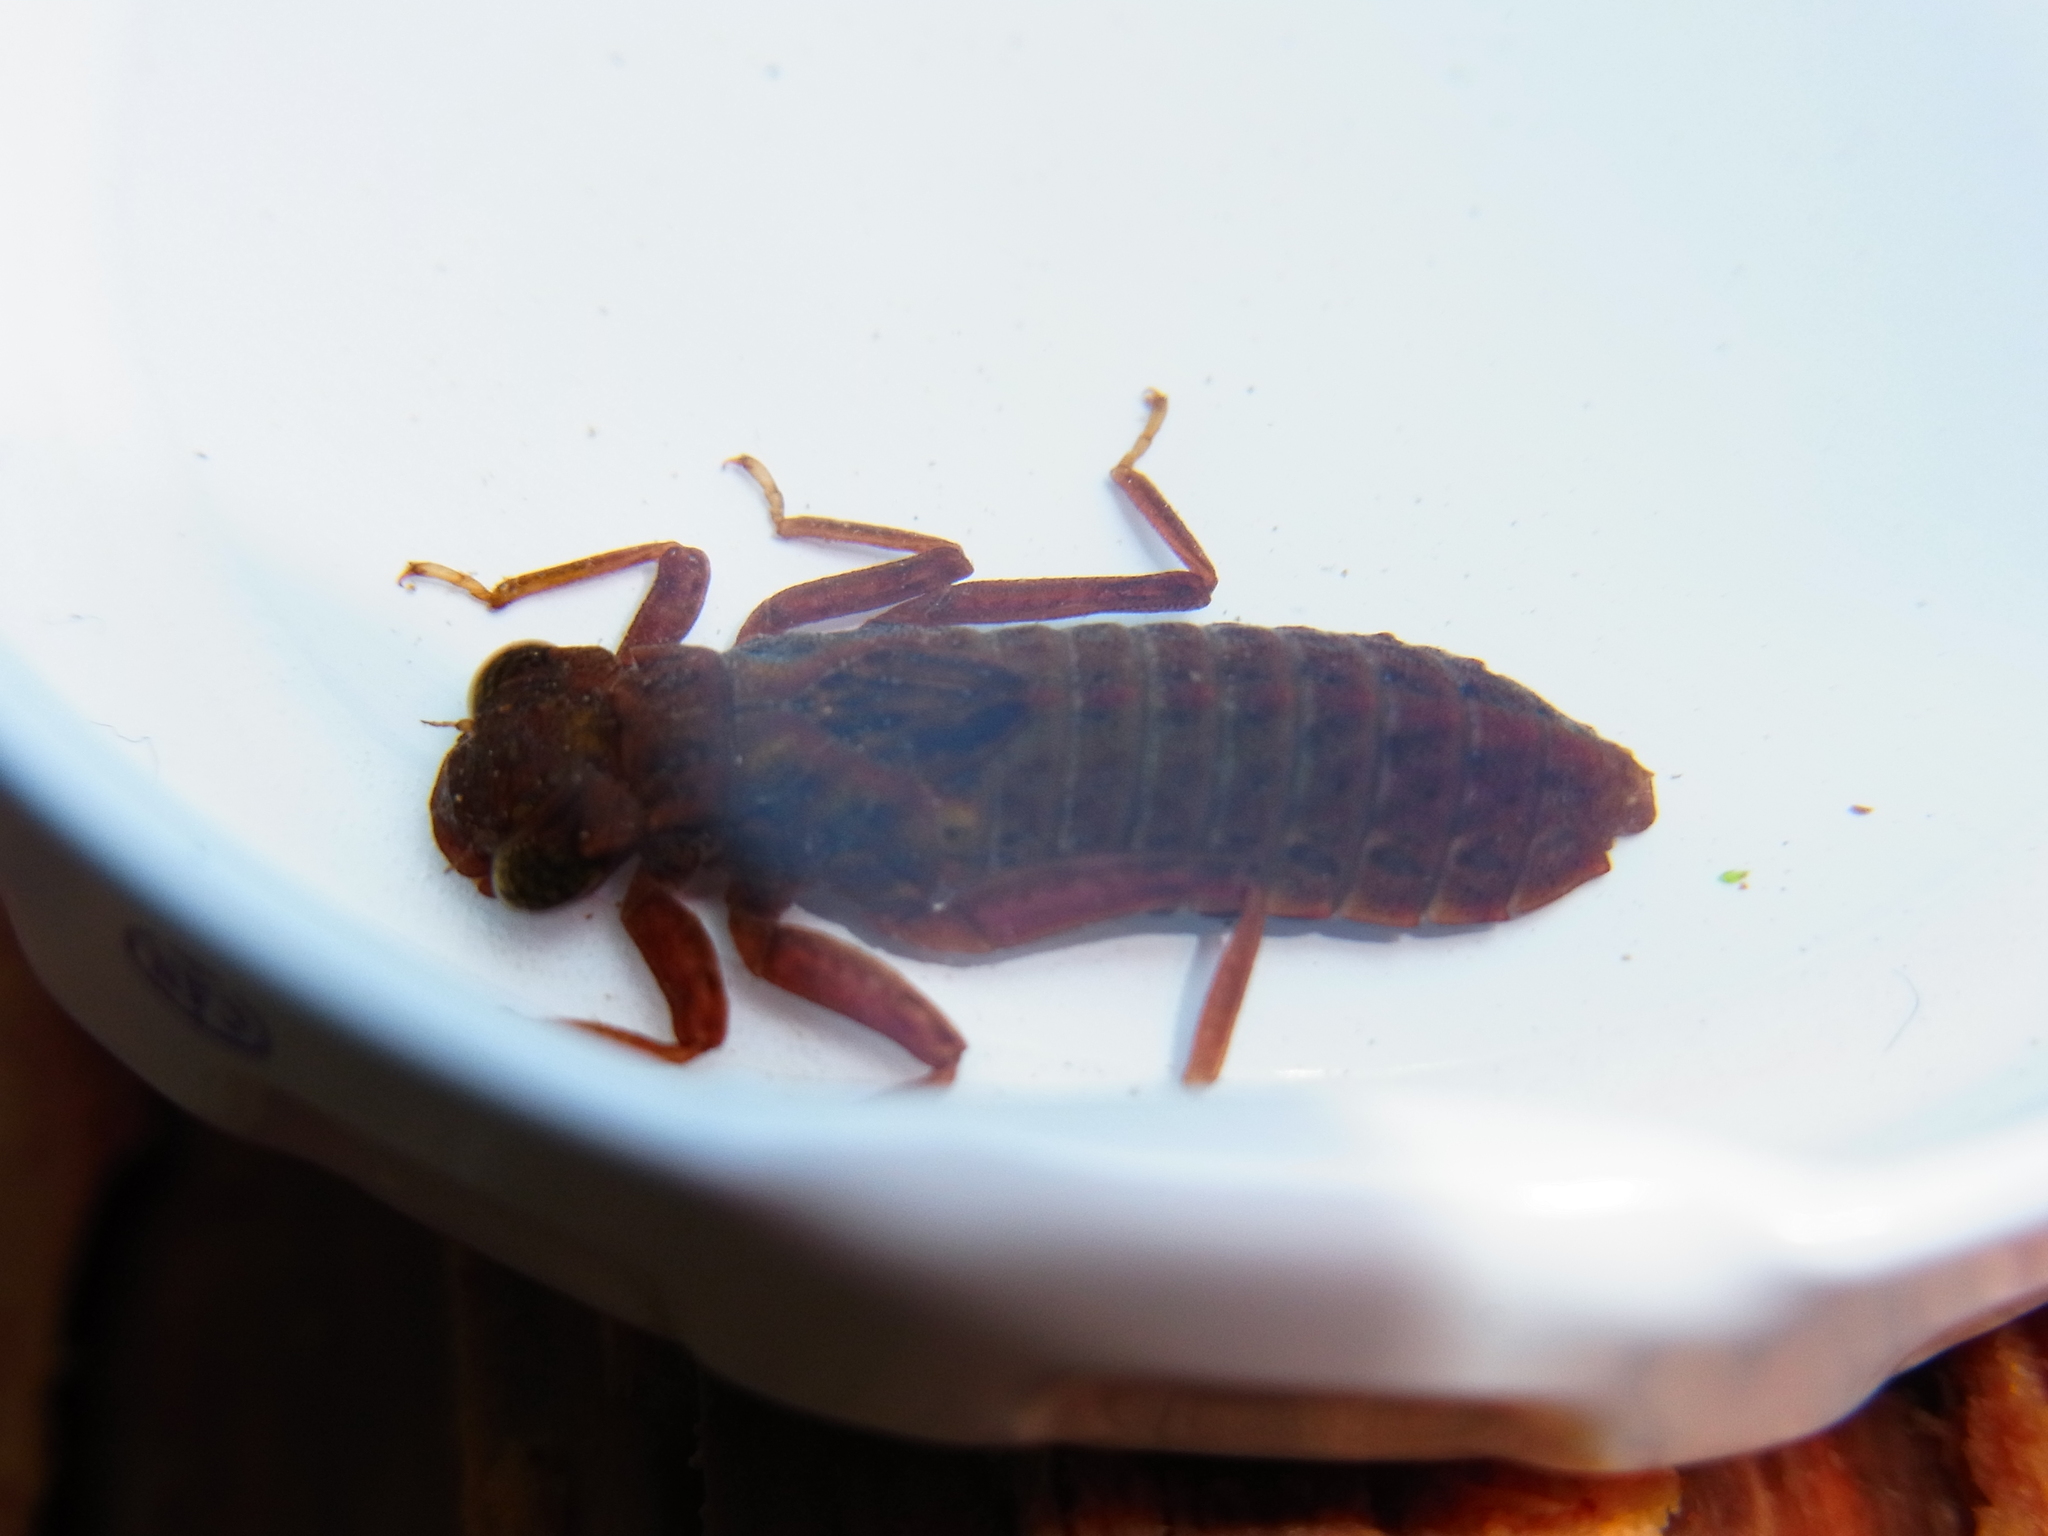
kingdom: Animalia
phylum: Arthropoda
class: Insecta
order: Odonata
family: Epiophlebiidae
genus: Epiophlebia
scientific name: Epiophlebia superstes
